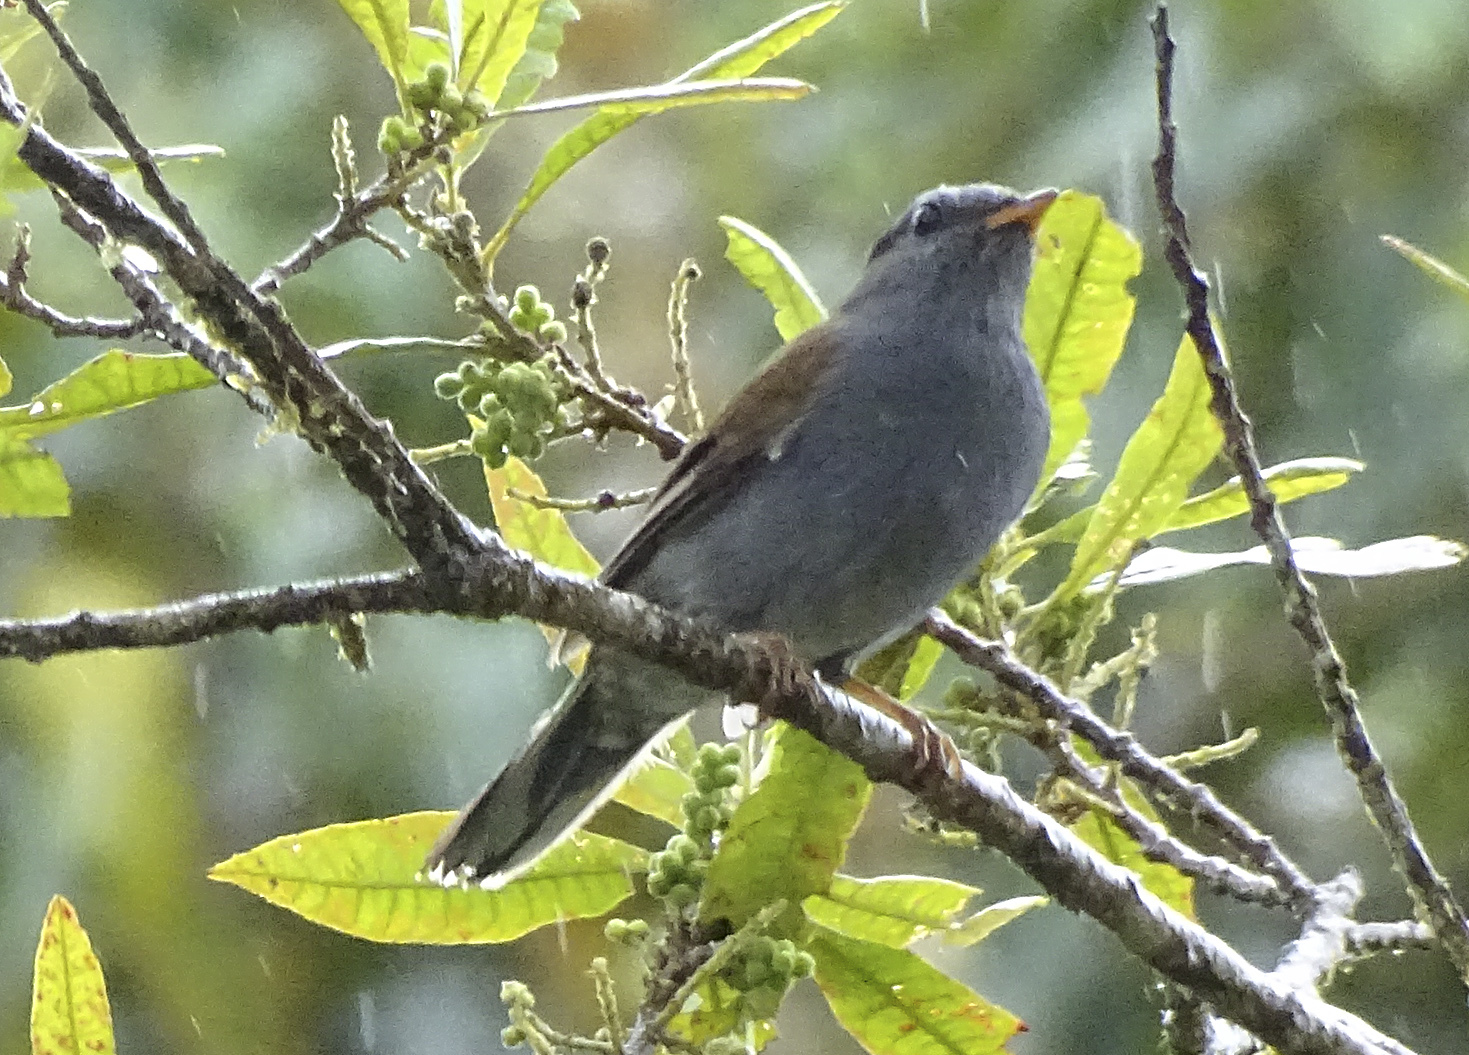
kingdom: Animalia
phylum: Chordata
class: Aves
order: Passeriformes
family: Turdidae
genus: Myadestes
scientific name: Myadestes ralloides
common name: Andean solitaire
